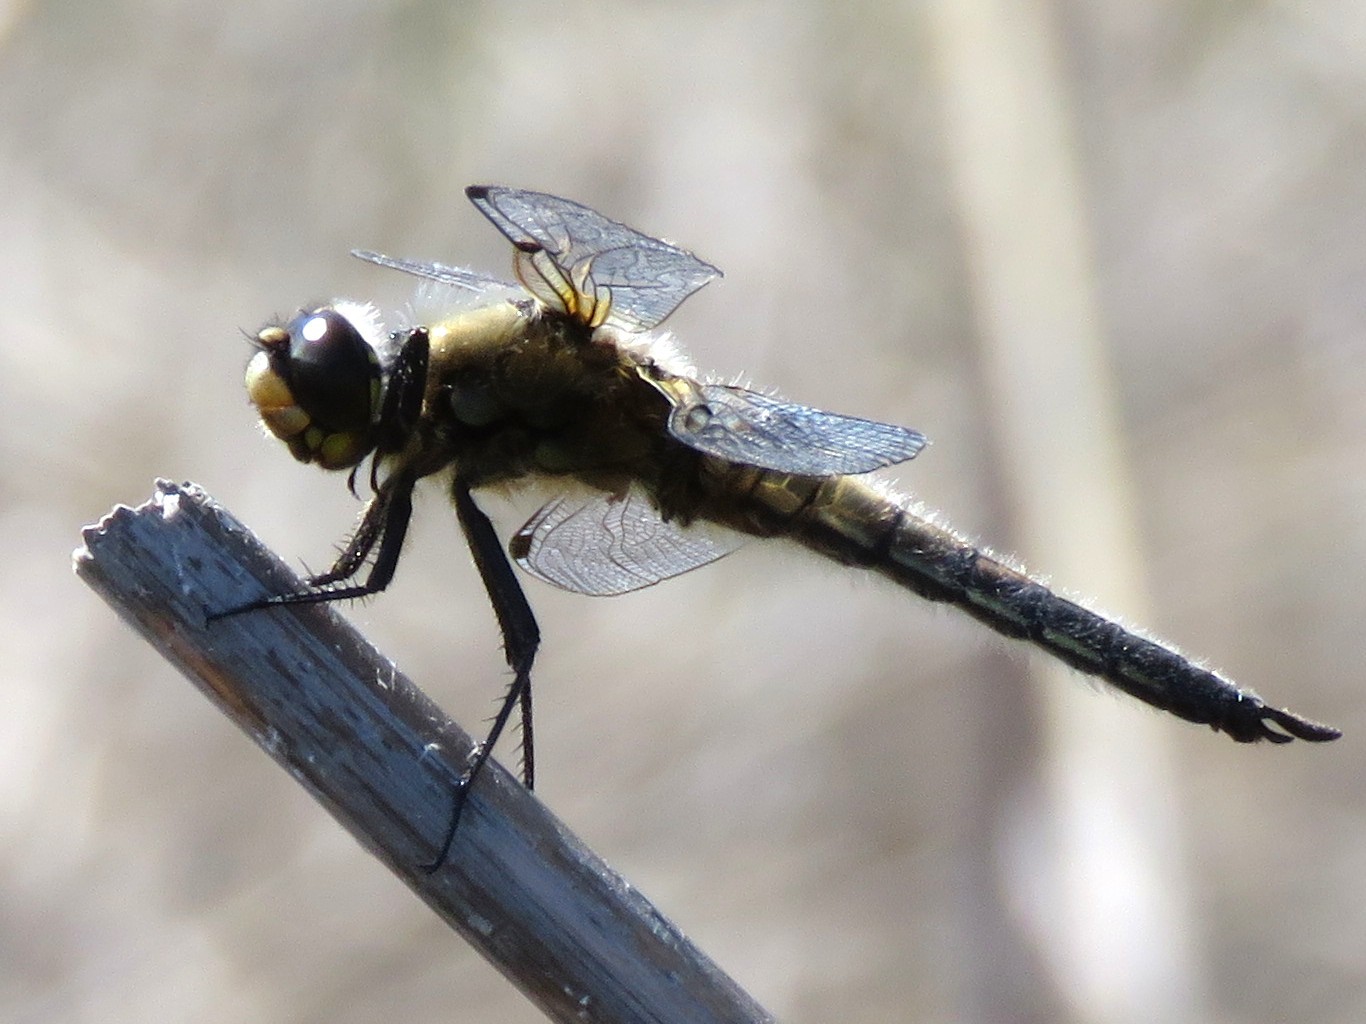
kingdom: Animalia
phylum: Arthropoda
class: Insecta
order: Odonata
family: Libellulidae
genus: Libellula
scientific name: Libellula quadrimaculata
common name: Four-spotted chaser
